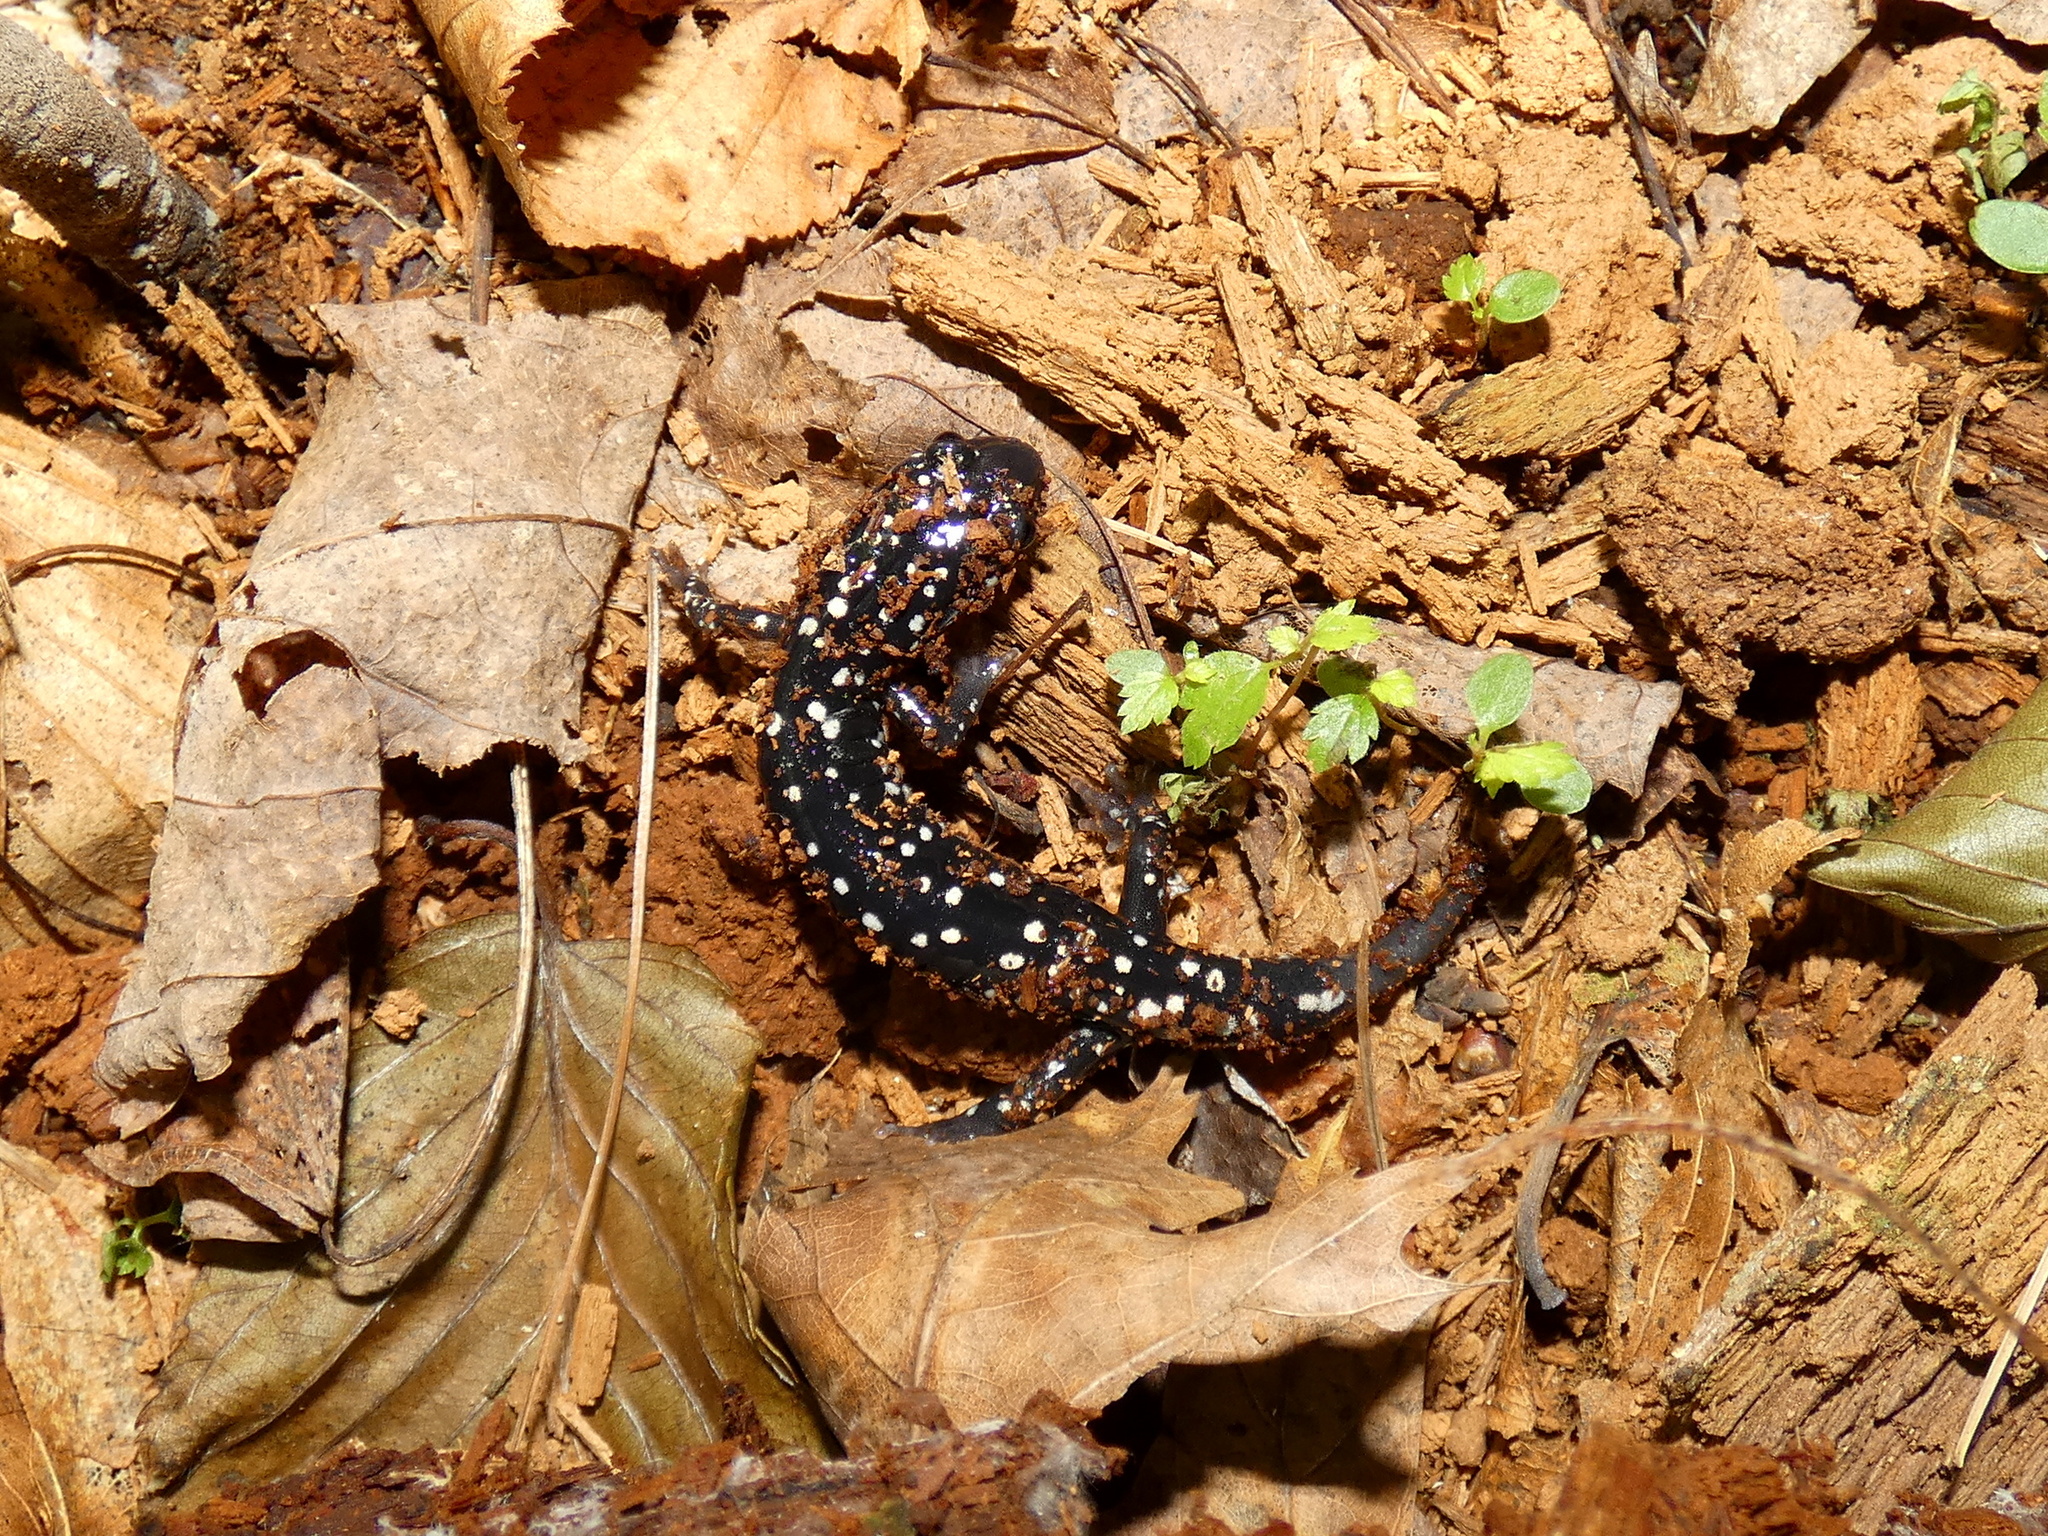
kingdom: Animalia
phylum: Chordata
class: Amphibia
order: Caudata
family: Plethodontidae
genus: Plethodon
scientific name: Plethodon glutinosus
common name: Northern slimy salamander
